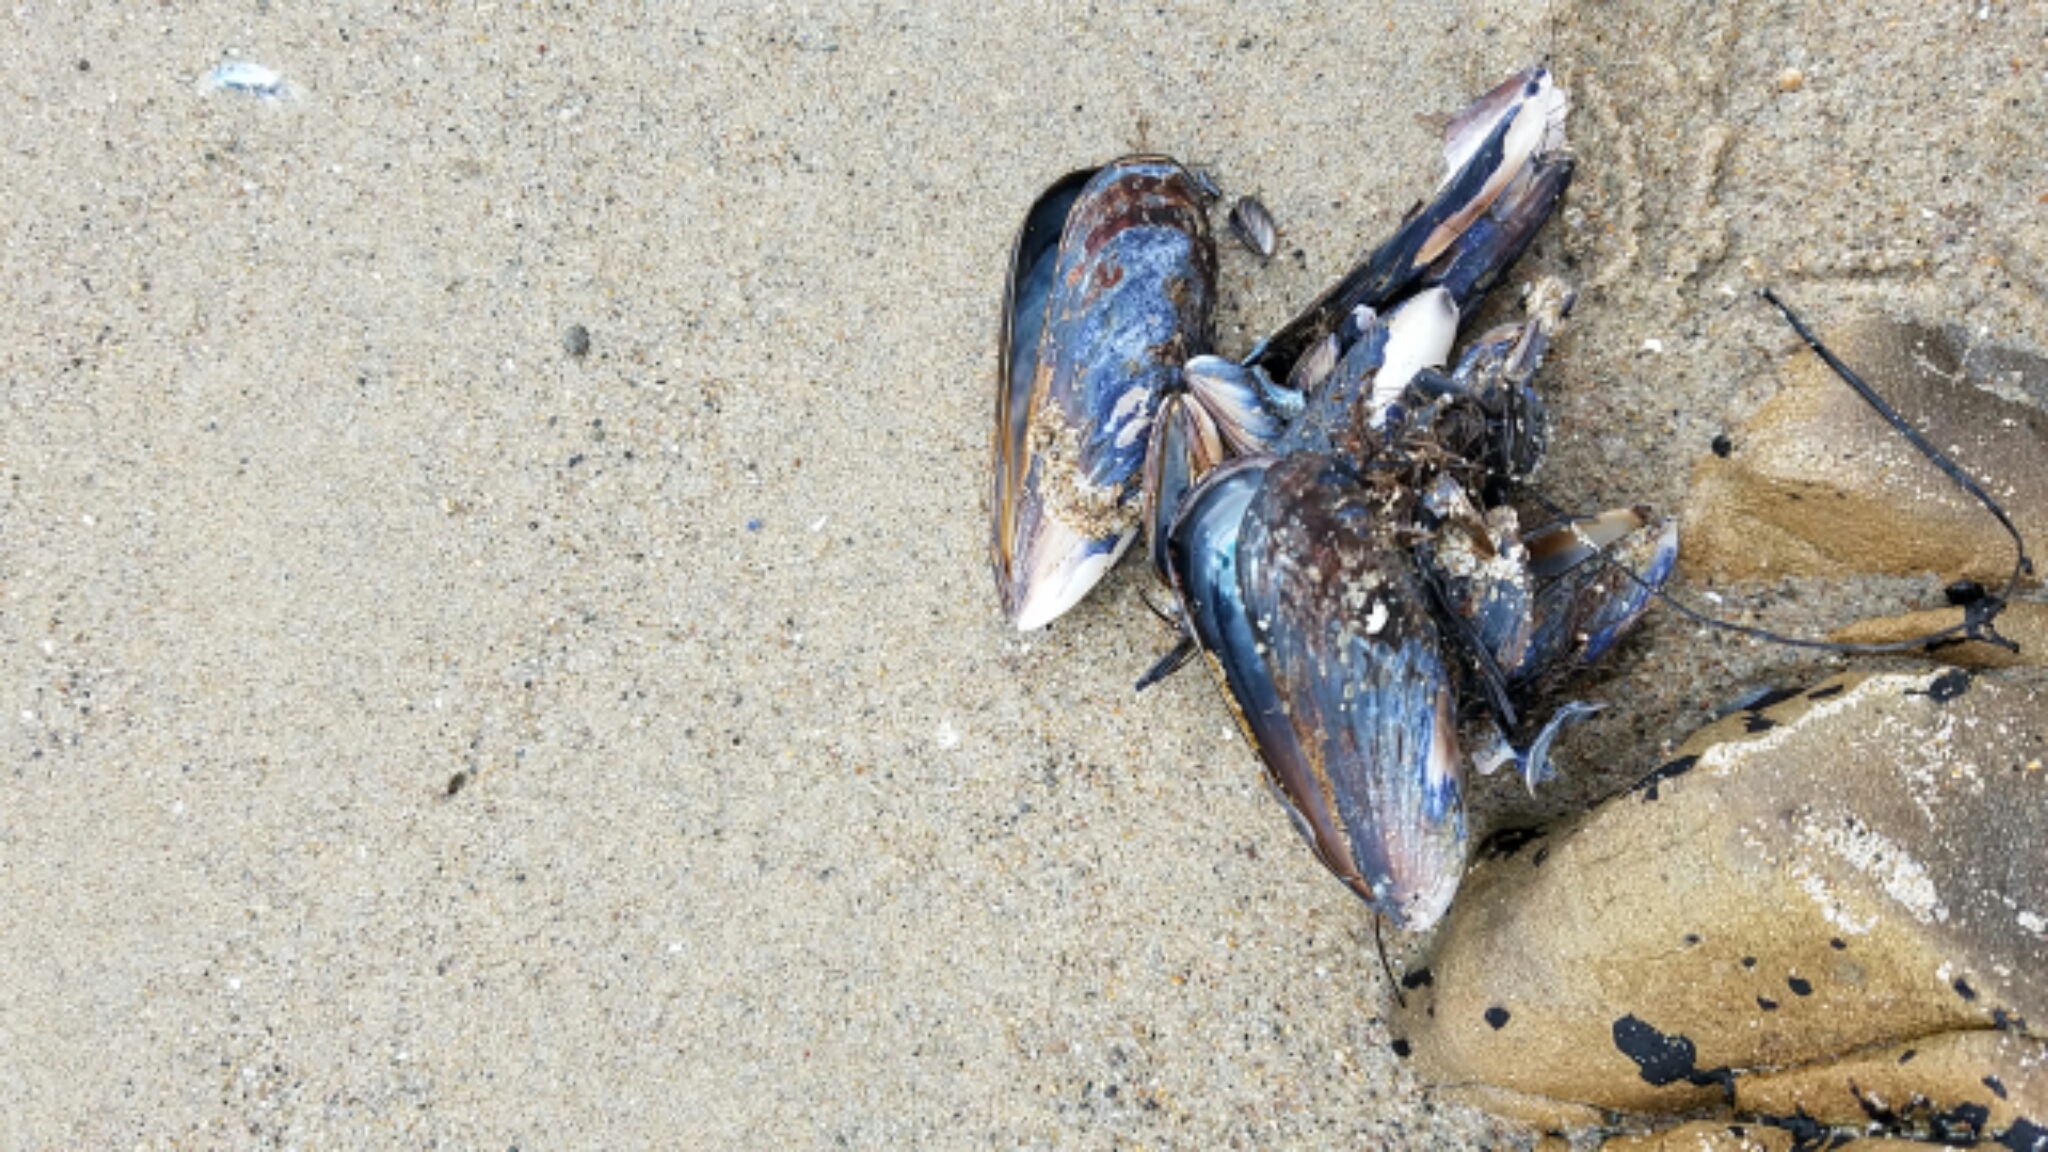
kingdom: Animalia
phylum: Mollusca
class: Bivalvia
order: Mytilida
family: Mytilidae
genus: Mytilus
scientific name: Mytilus californianus
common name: California mussel
